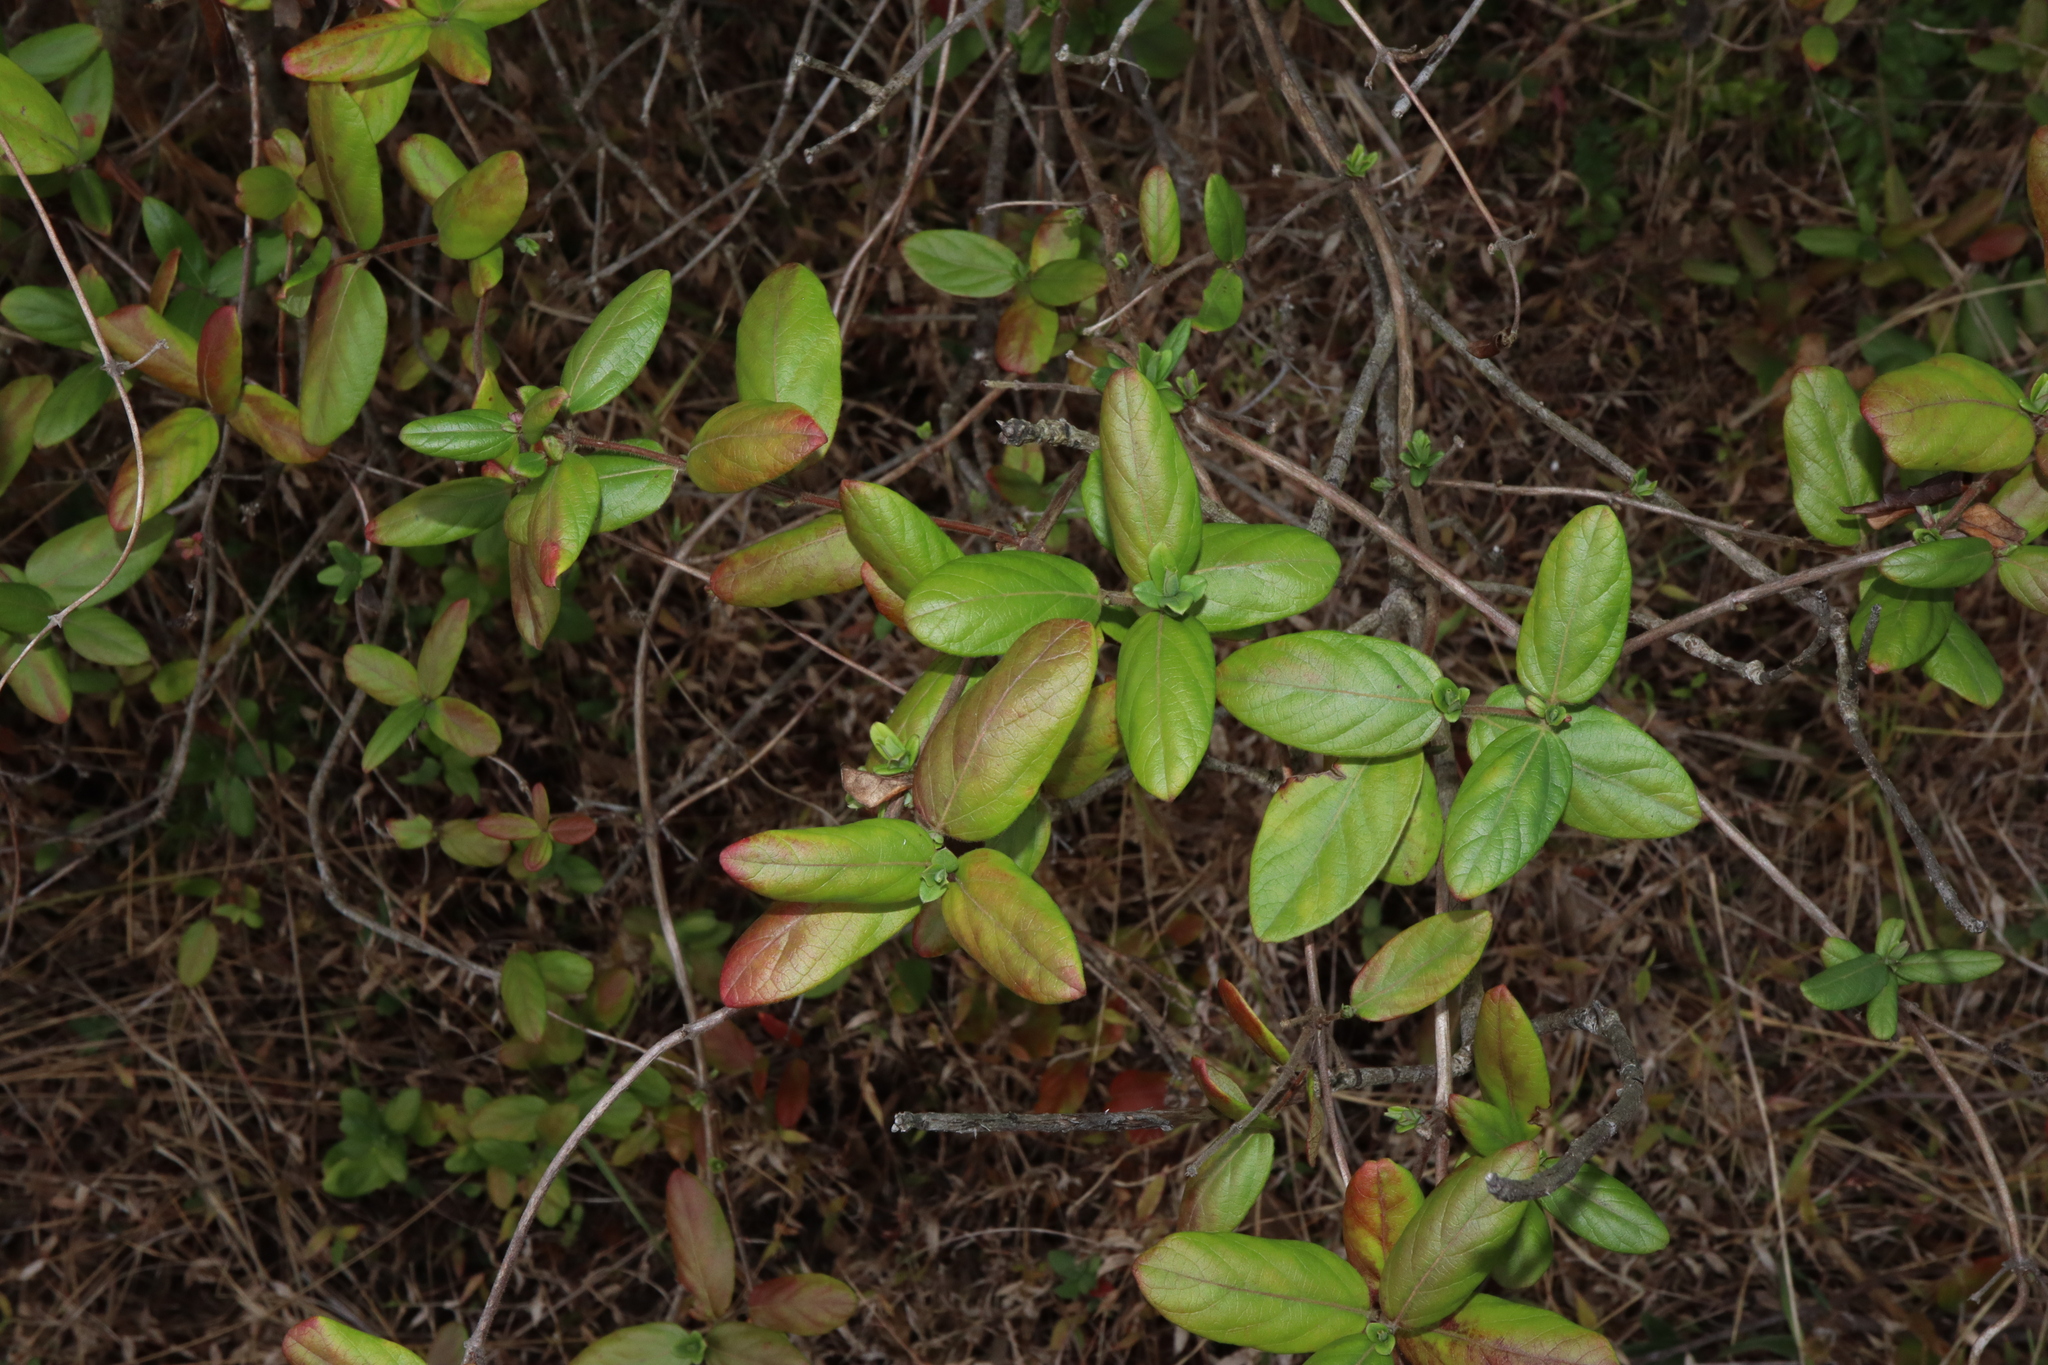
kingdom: Plantae
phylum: Tracheophyta
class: Magnoliopsida
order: Dipsacales
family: Caprifoliaceae
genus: Lonicera
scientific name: Lonicera japonica
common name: Japanese honeysuckle
